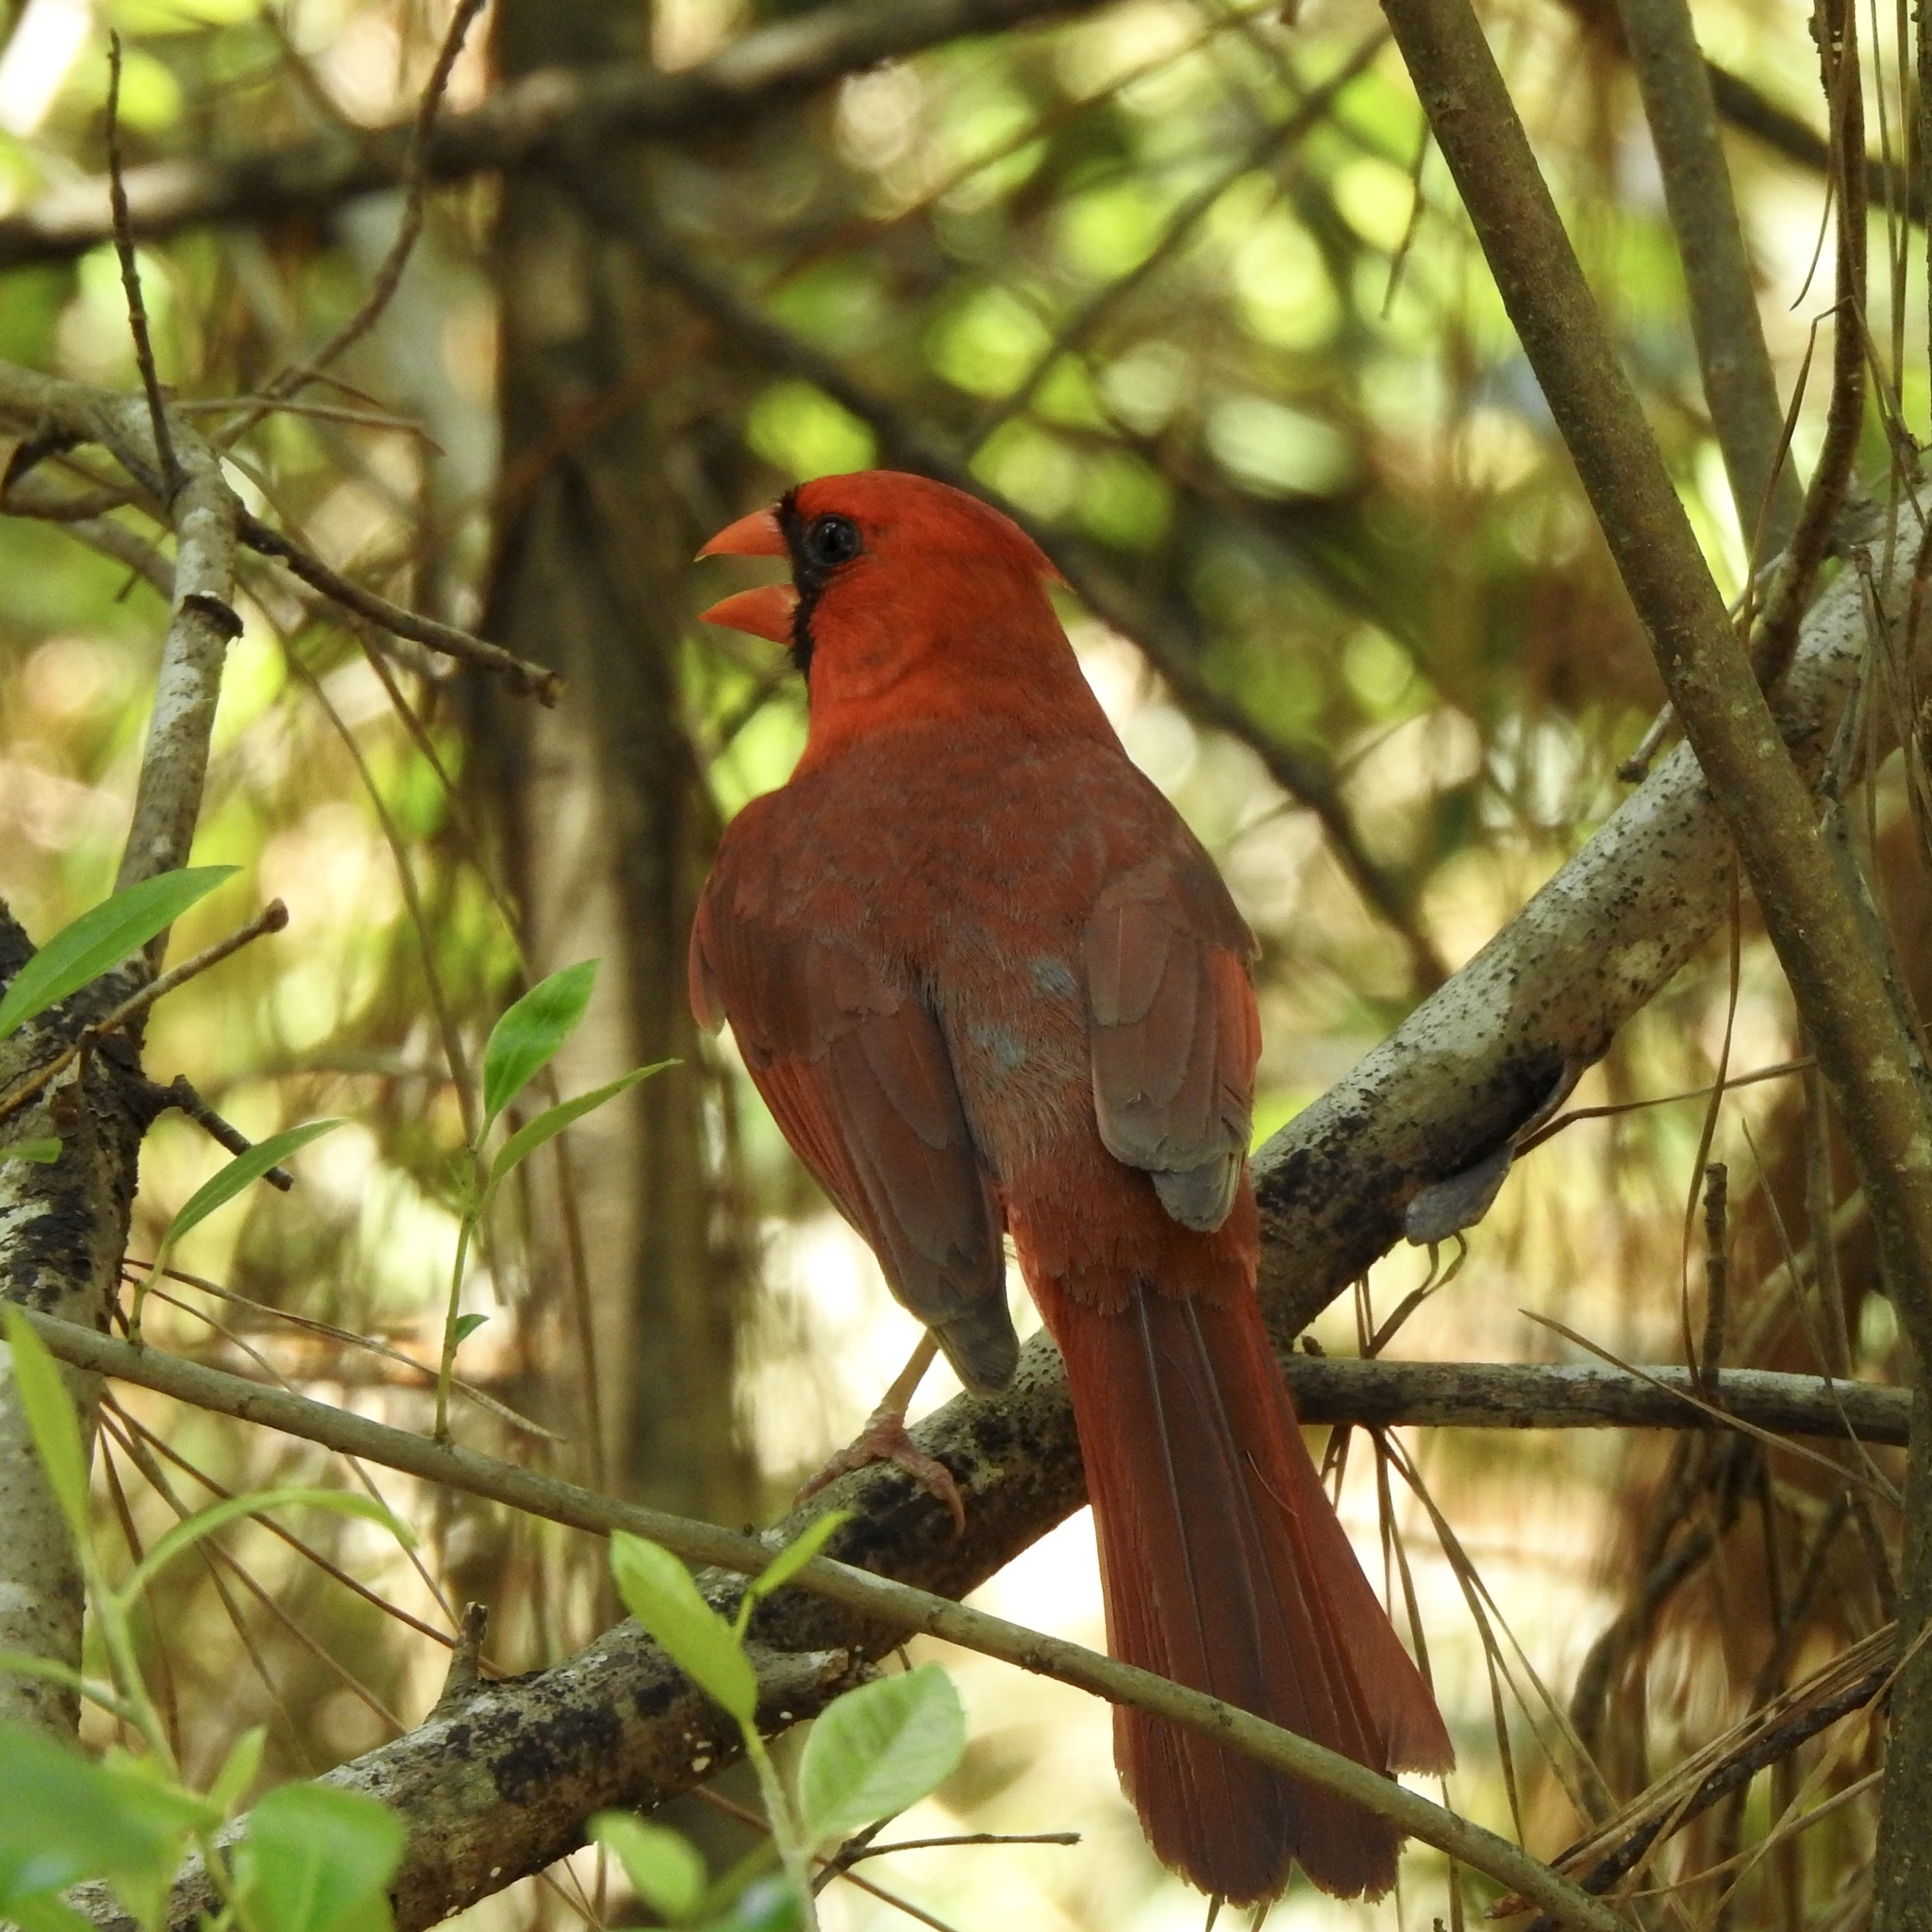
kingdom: Animalia
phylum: Chordata
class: Aves
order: Passeriformes
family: Cardinalidae
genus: Cardinalis
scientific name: Cardinalis cardinalis
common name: Northern cardinal
